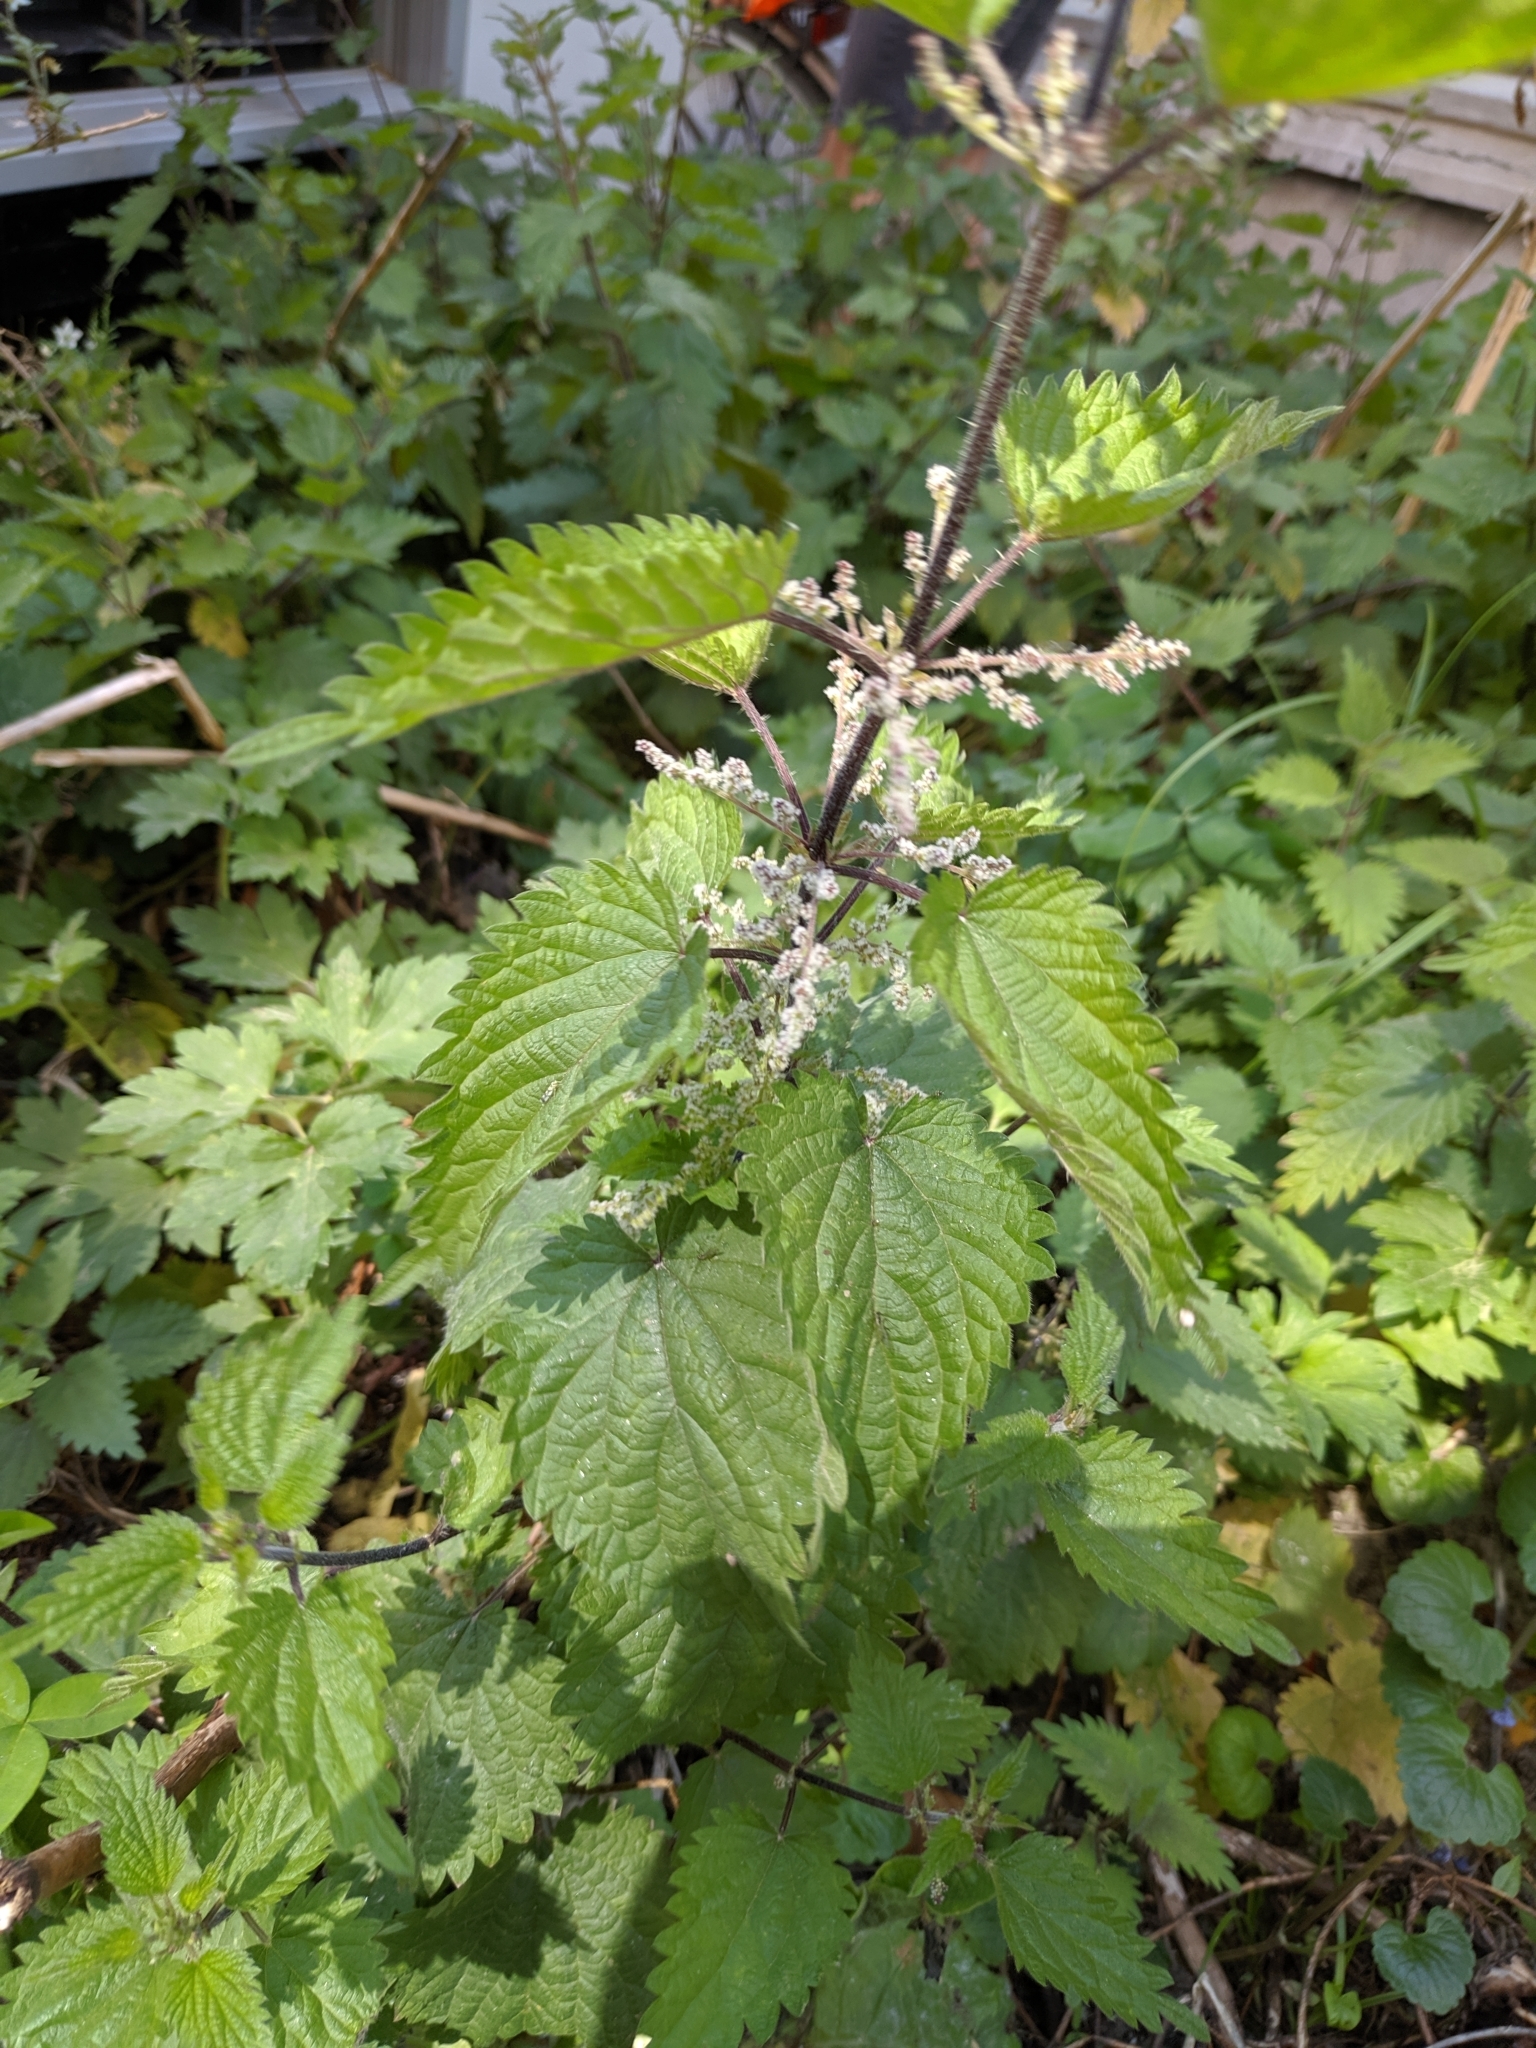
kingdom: Plantae
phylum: Tracheophyta
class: Magnoliopsida
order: Rosales
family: Urticaceae
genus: Urtica
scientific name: Urtica dioica
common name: Common nettle
